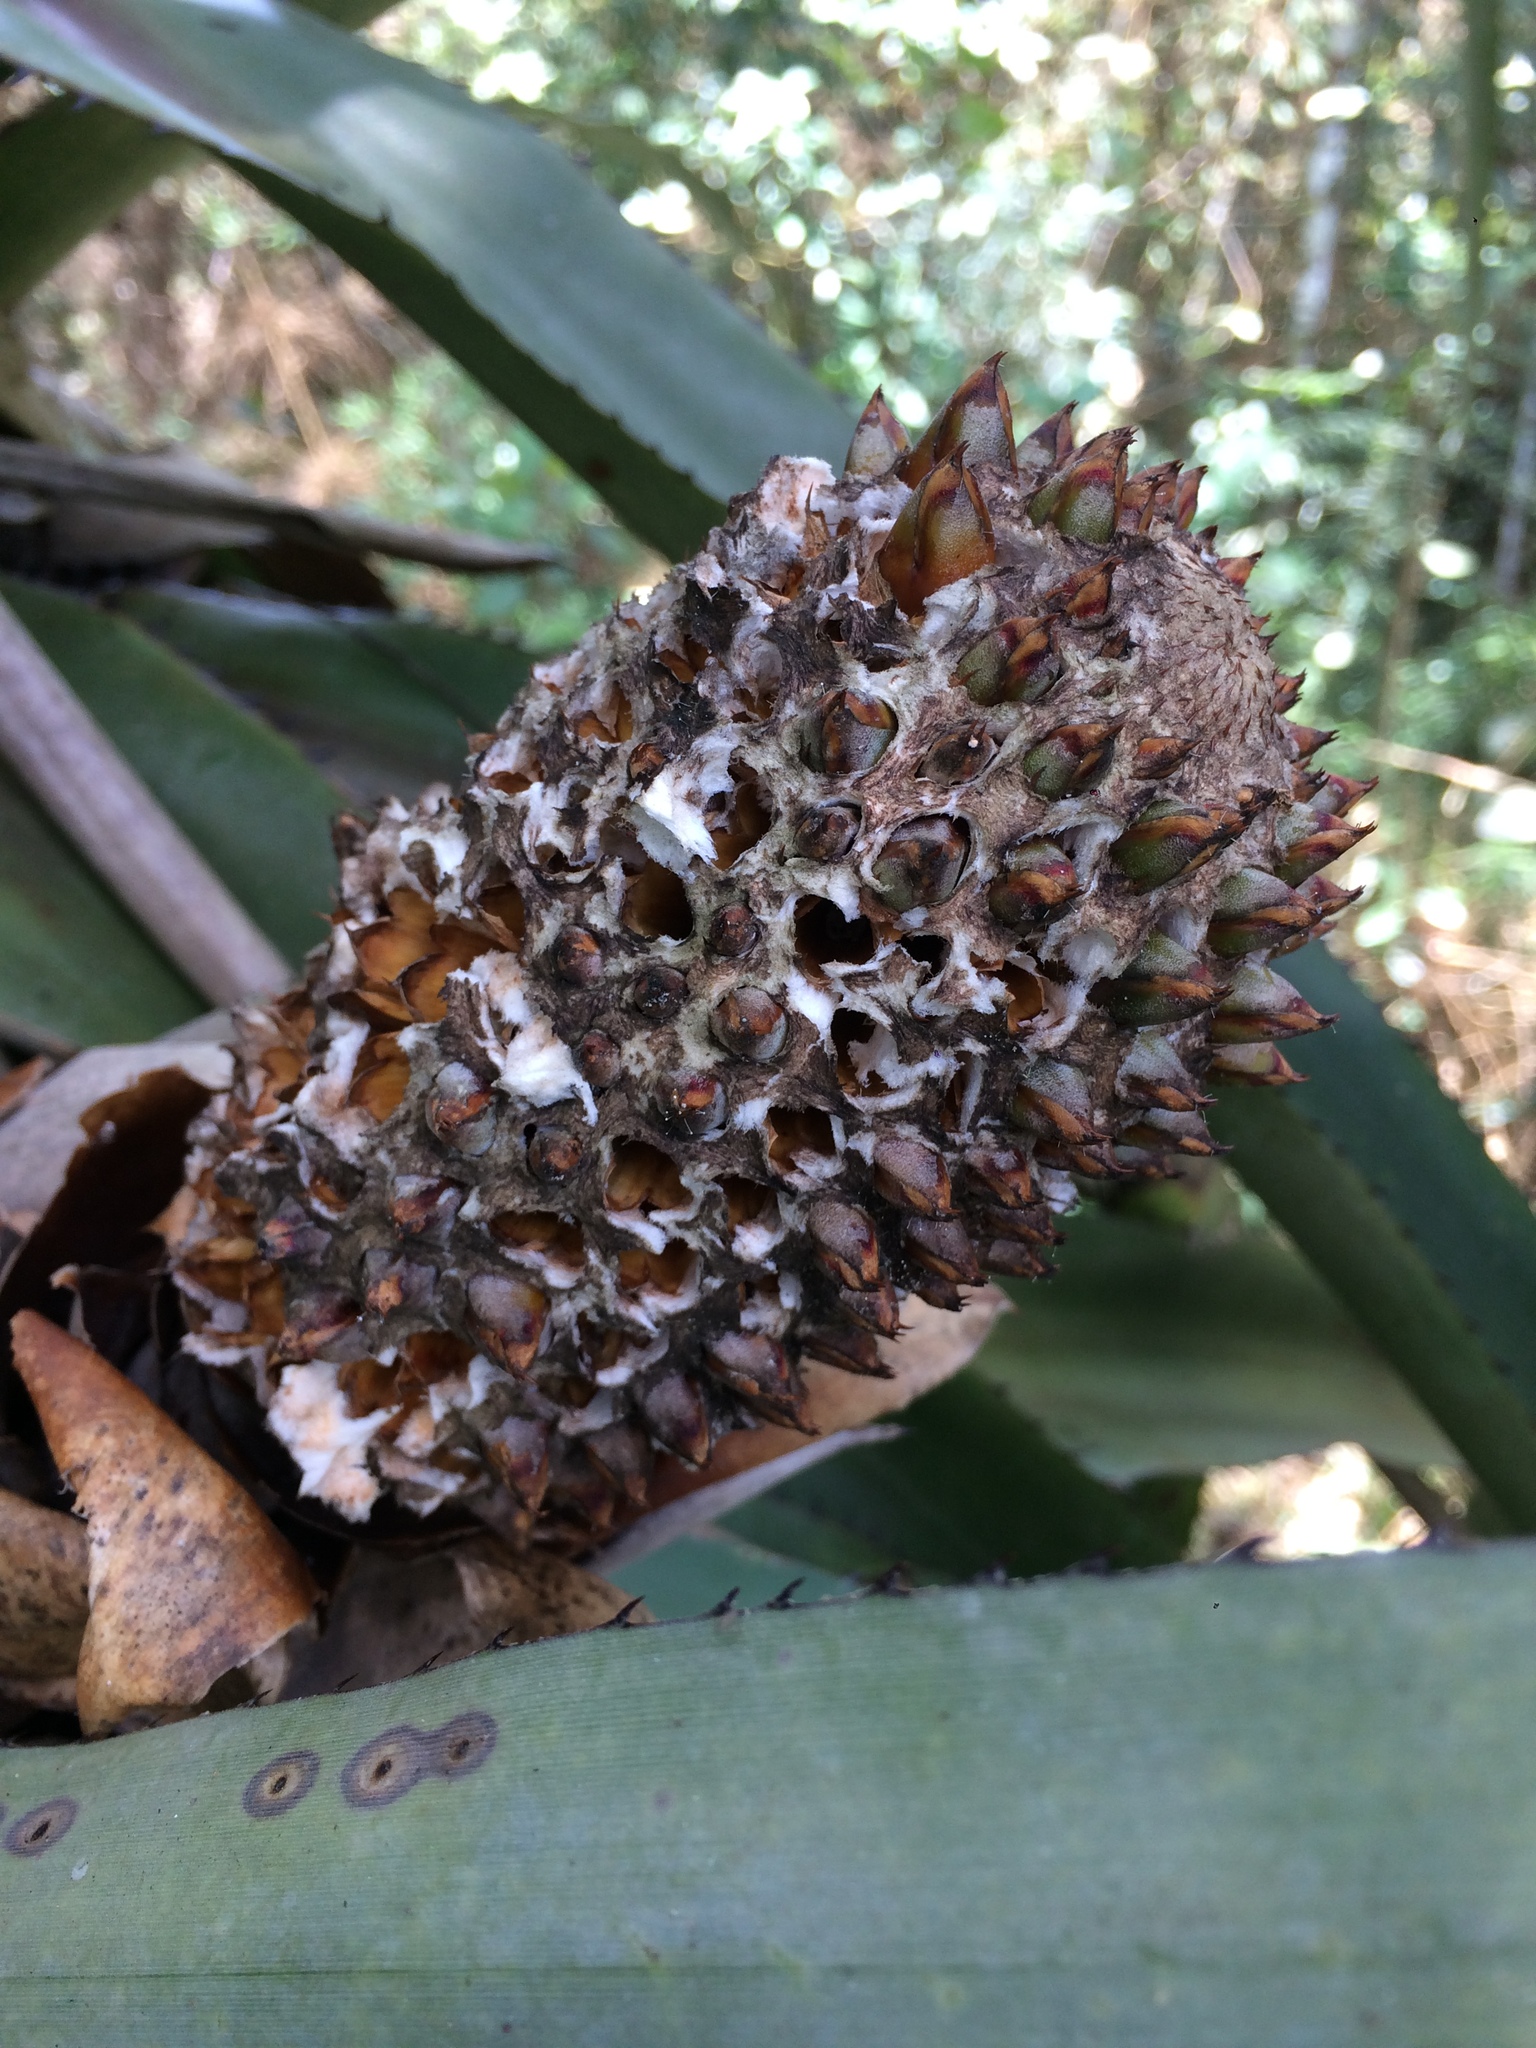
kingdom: Plantae
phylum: Tracheophyta
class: Liliopsida
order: Poales
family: Bromeliaceae
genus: Aechmea
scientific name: Aechmea perforata
